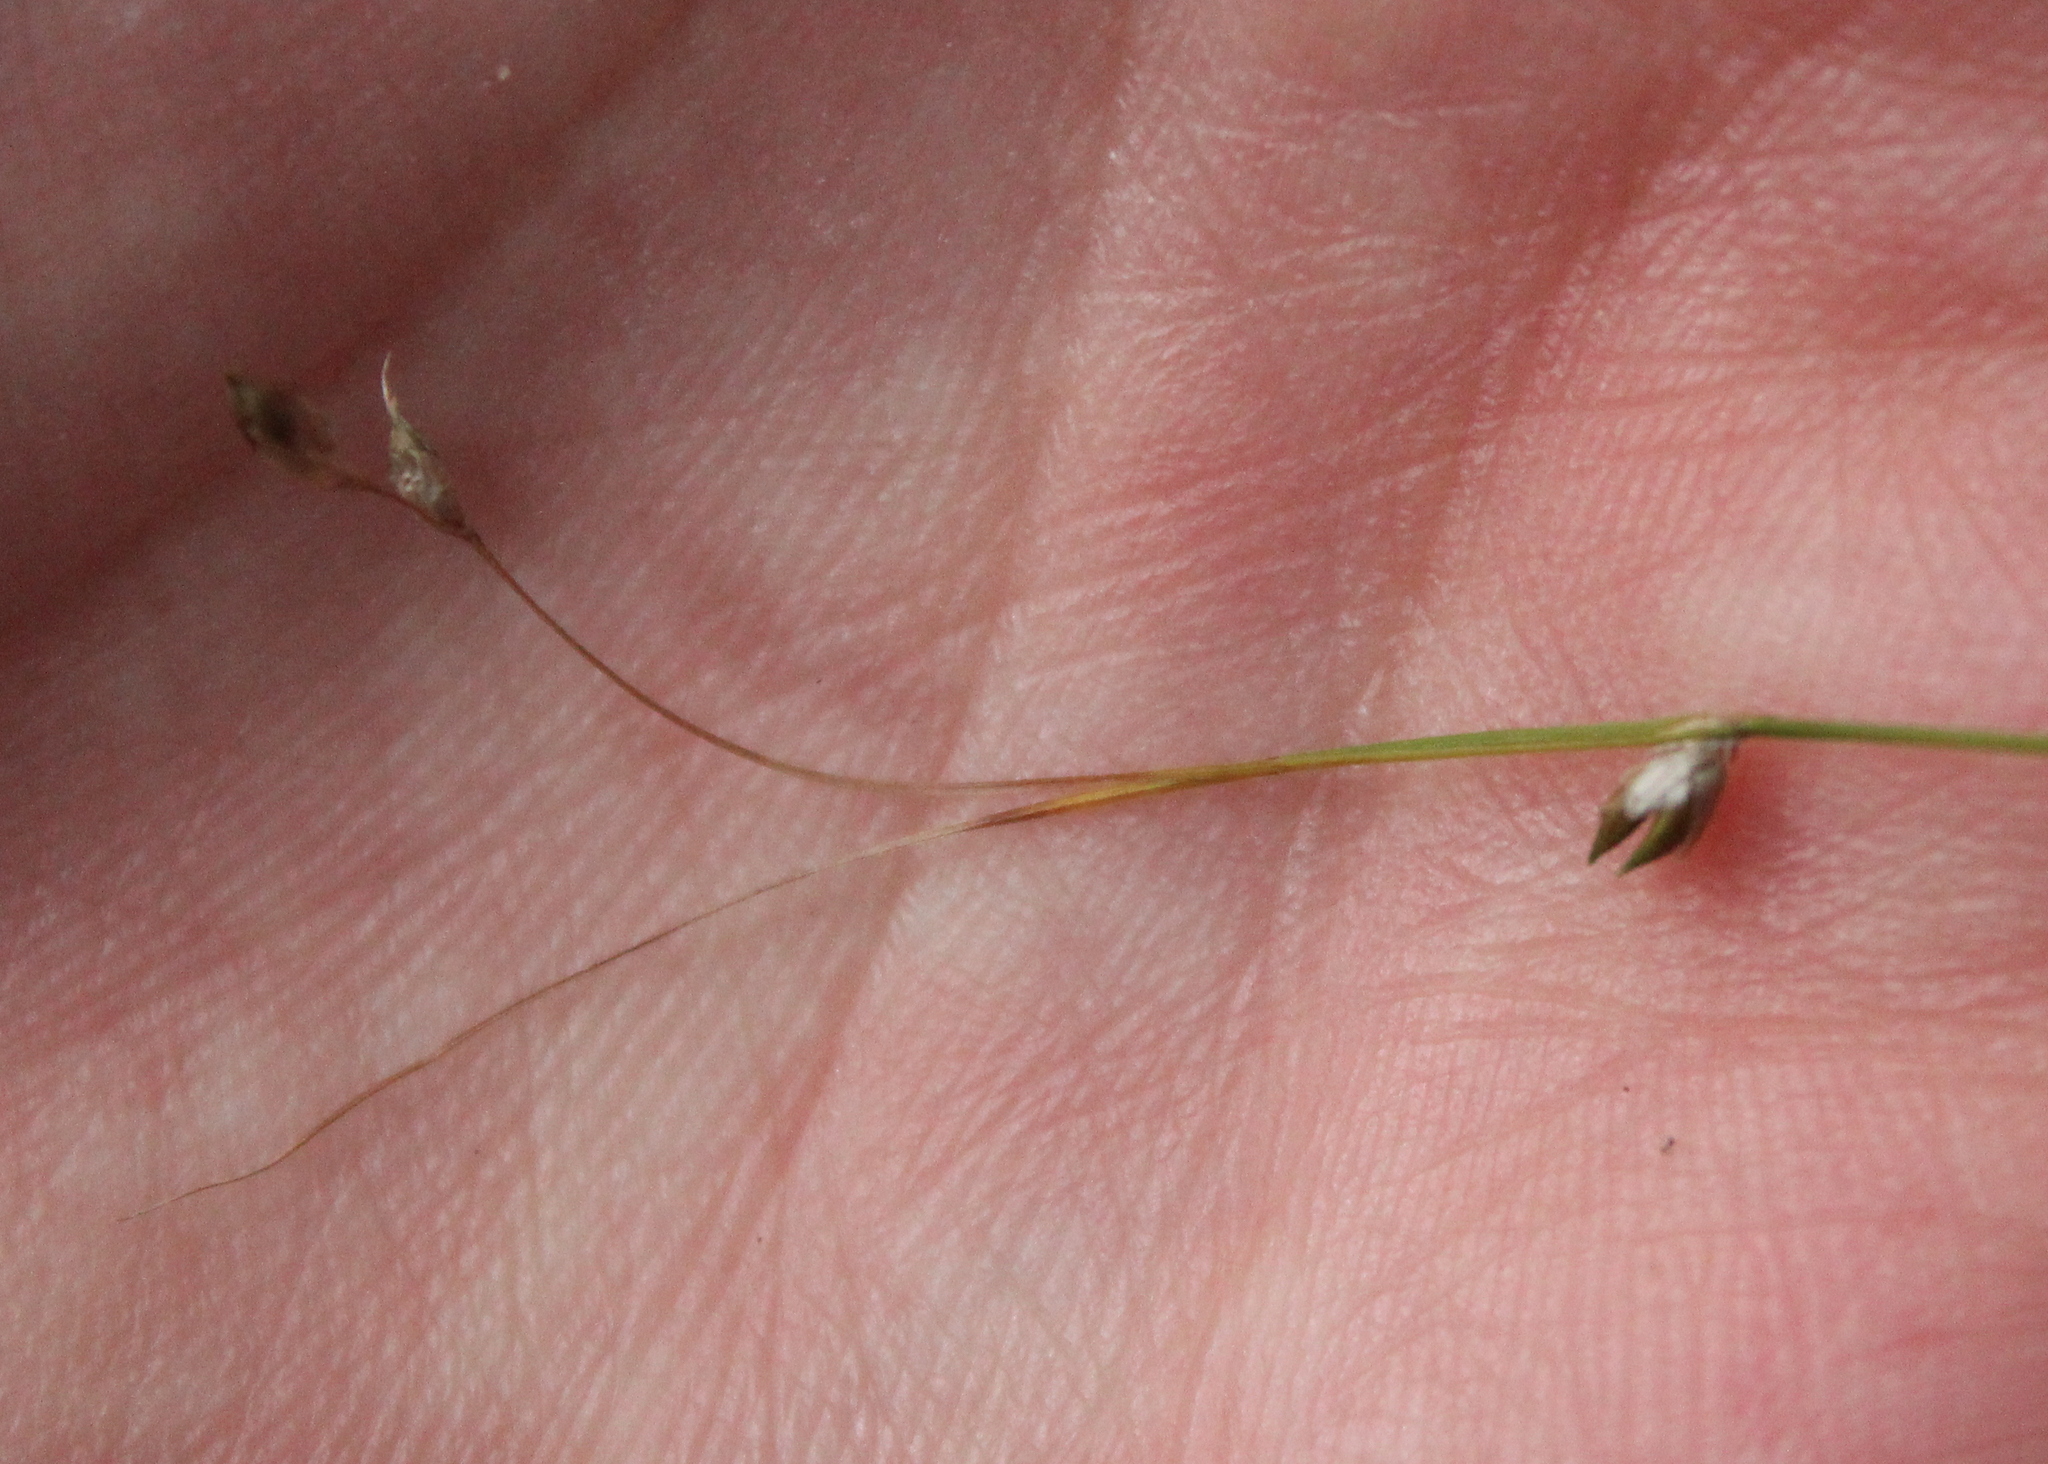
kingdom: Plantae
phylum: Tracheophyta
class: Liliopsida
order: Poales
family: Cyperaceae
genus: Carex
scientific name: Carex trisperma
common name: Three-seeded sedge
